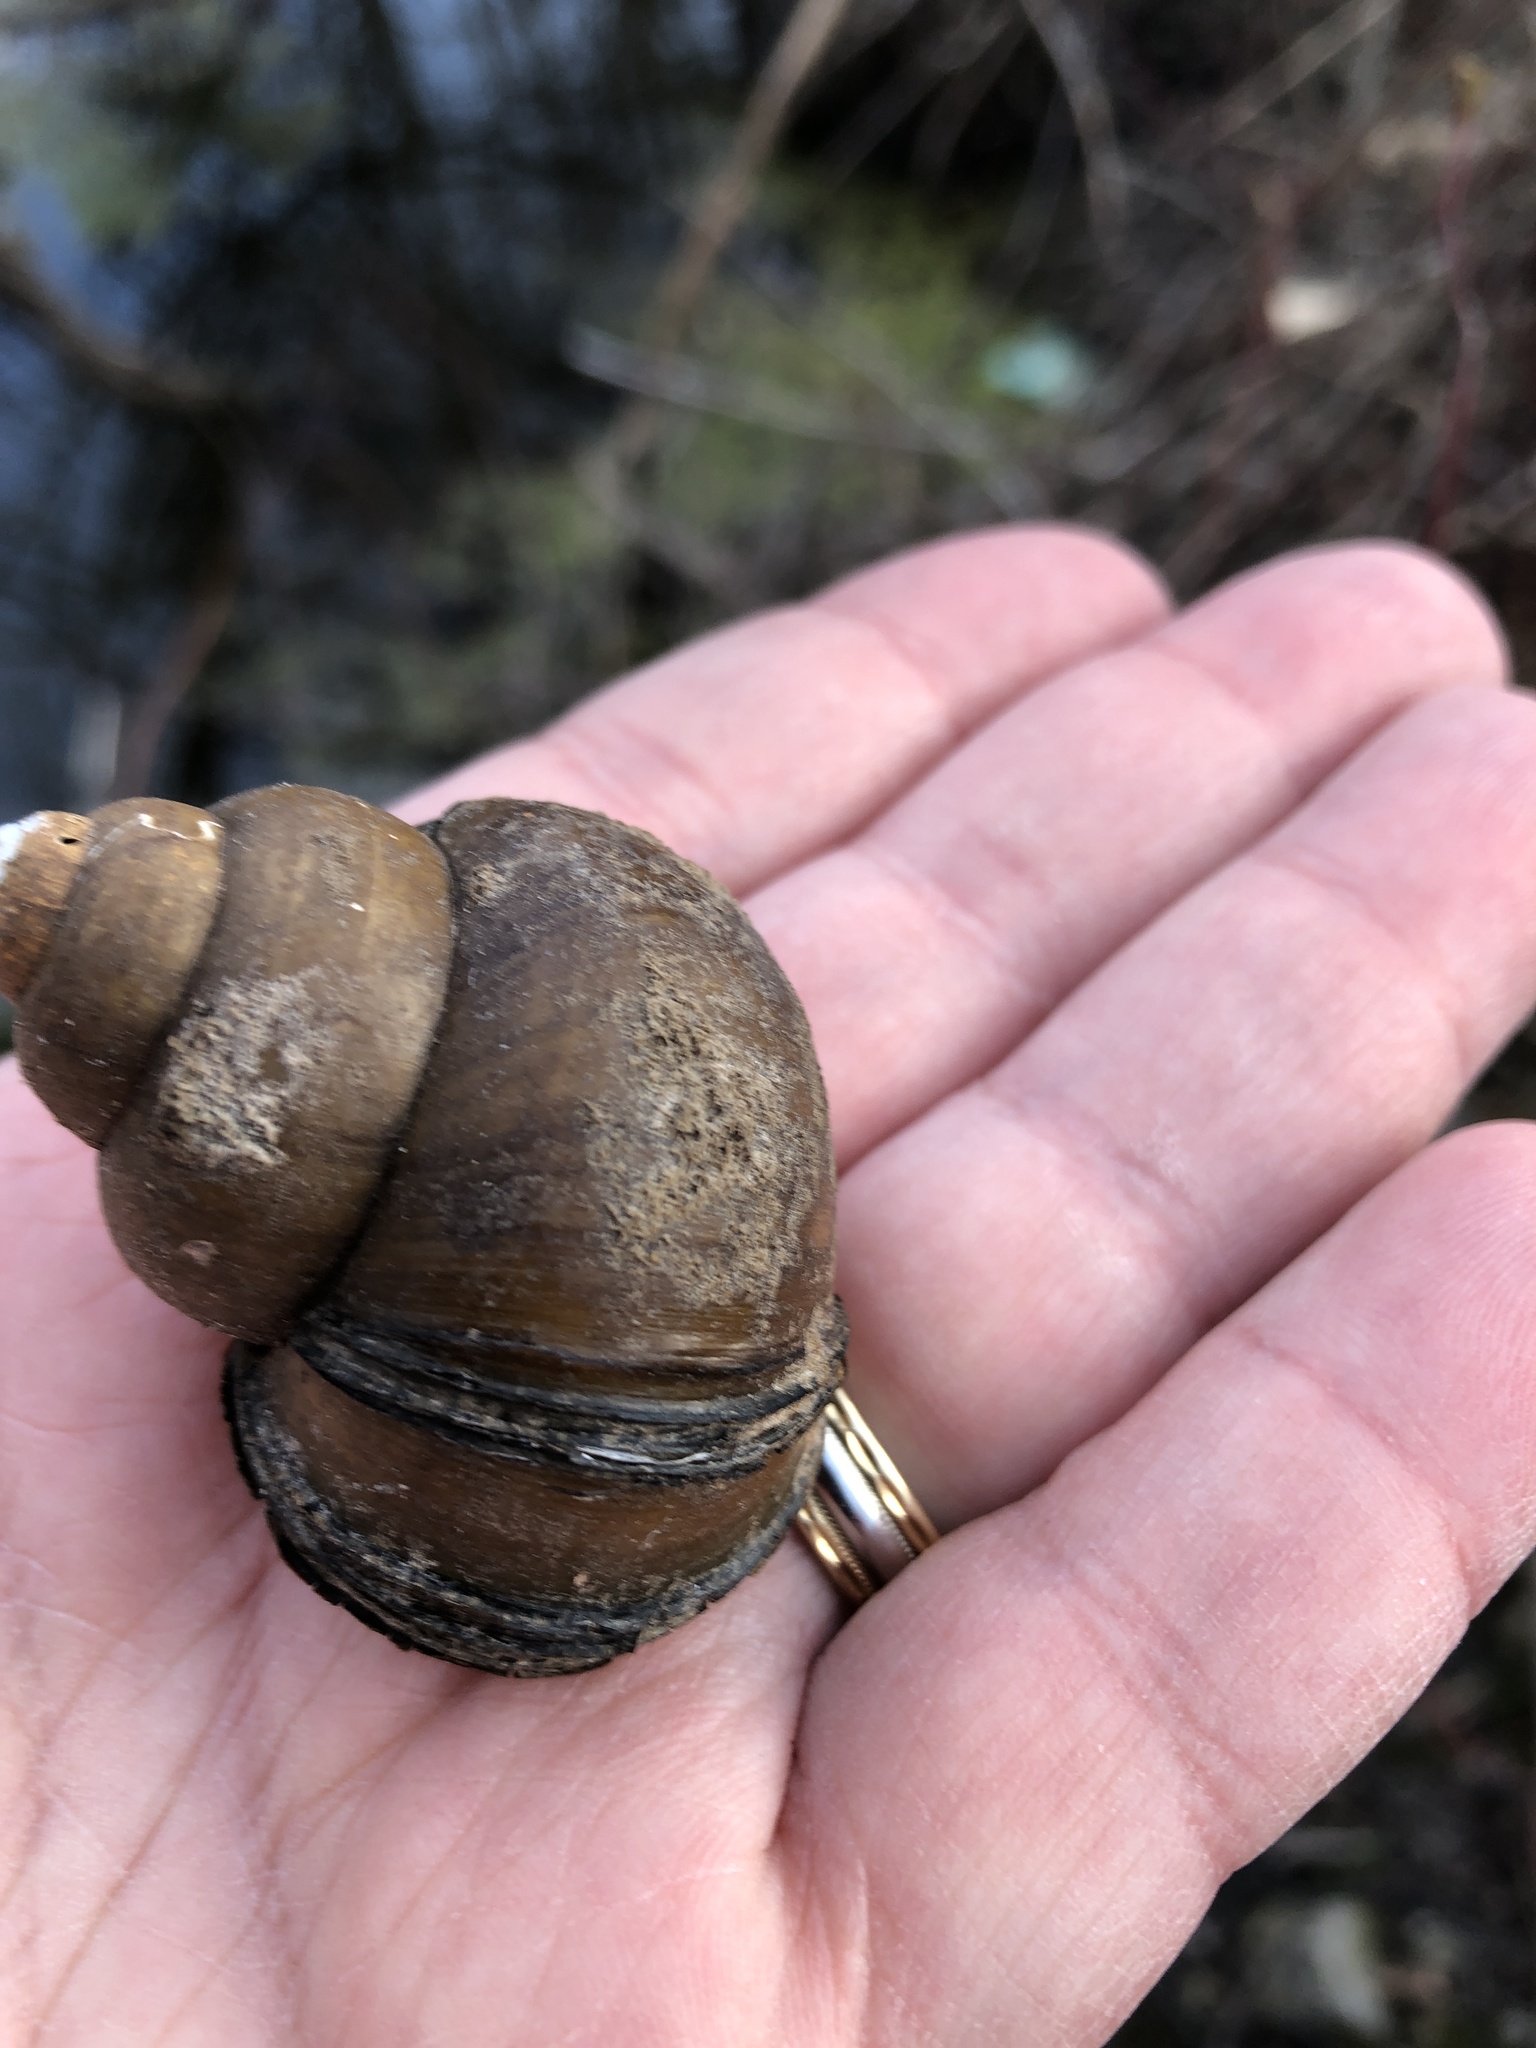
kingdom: Animalia
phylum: Mollusca
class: Gastropoda
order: Architaenioglossa
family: Viviparidae
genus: Cipangopaludina
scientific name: Cipangopaludina chinensis
